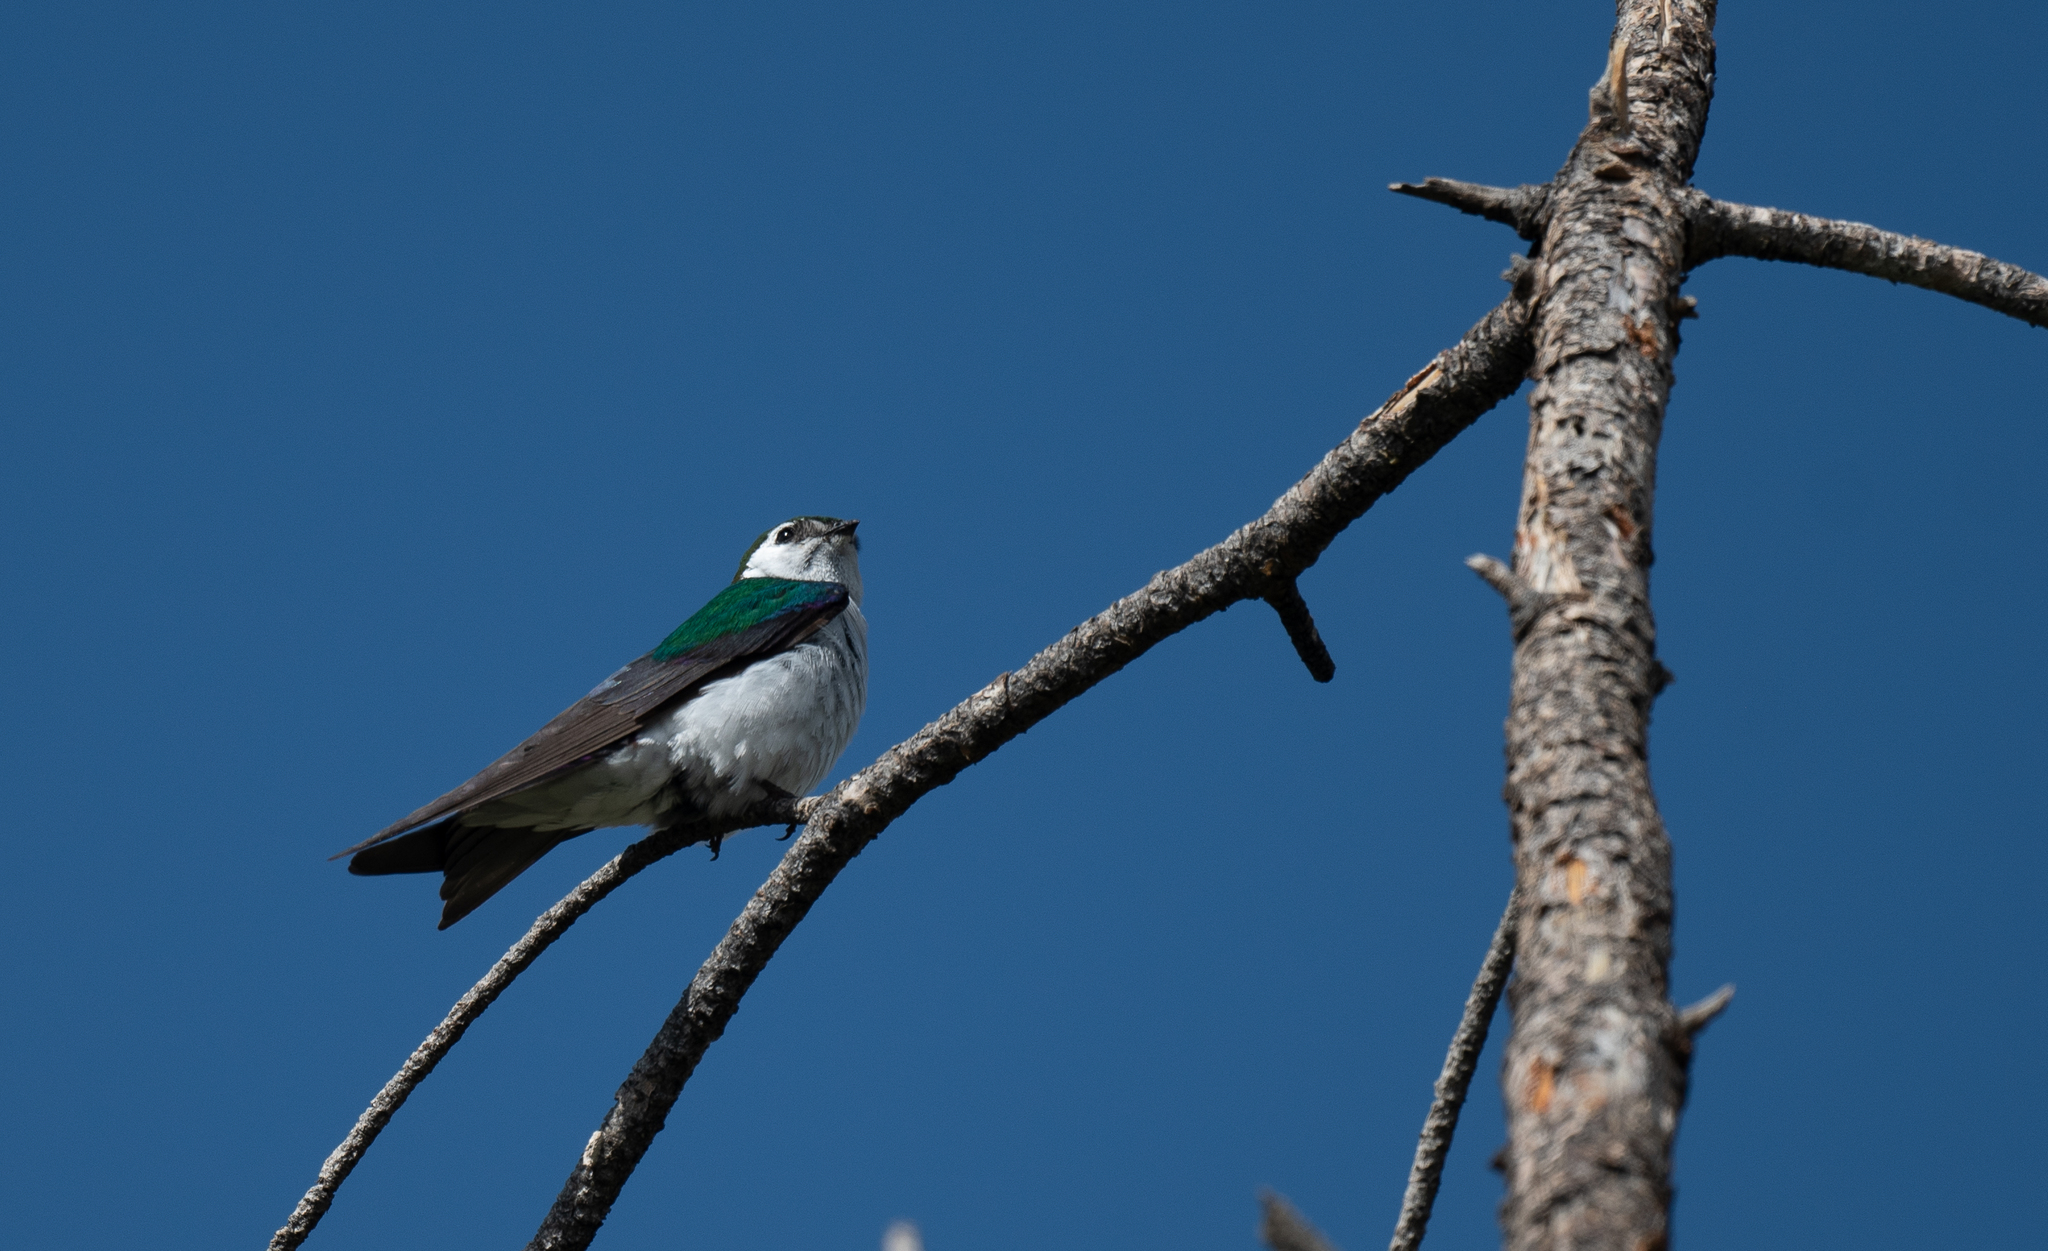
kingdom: Animalia
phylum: Chordata
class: Aves
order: Passeriformes
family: Hirundinidae
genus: Tachycineta
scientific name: Tachycineta thalassina
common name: Violet-green swallow
